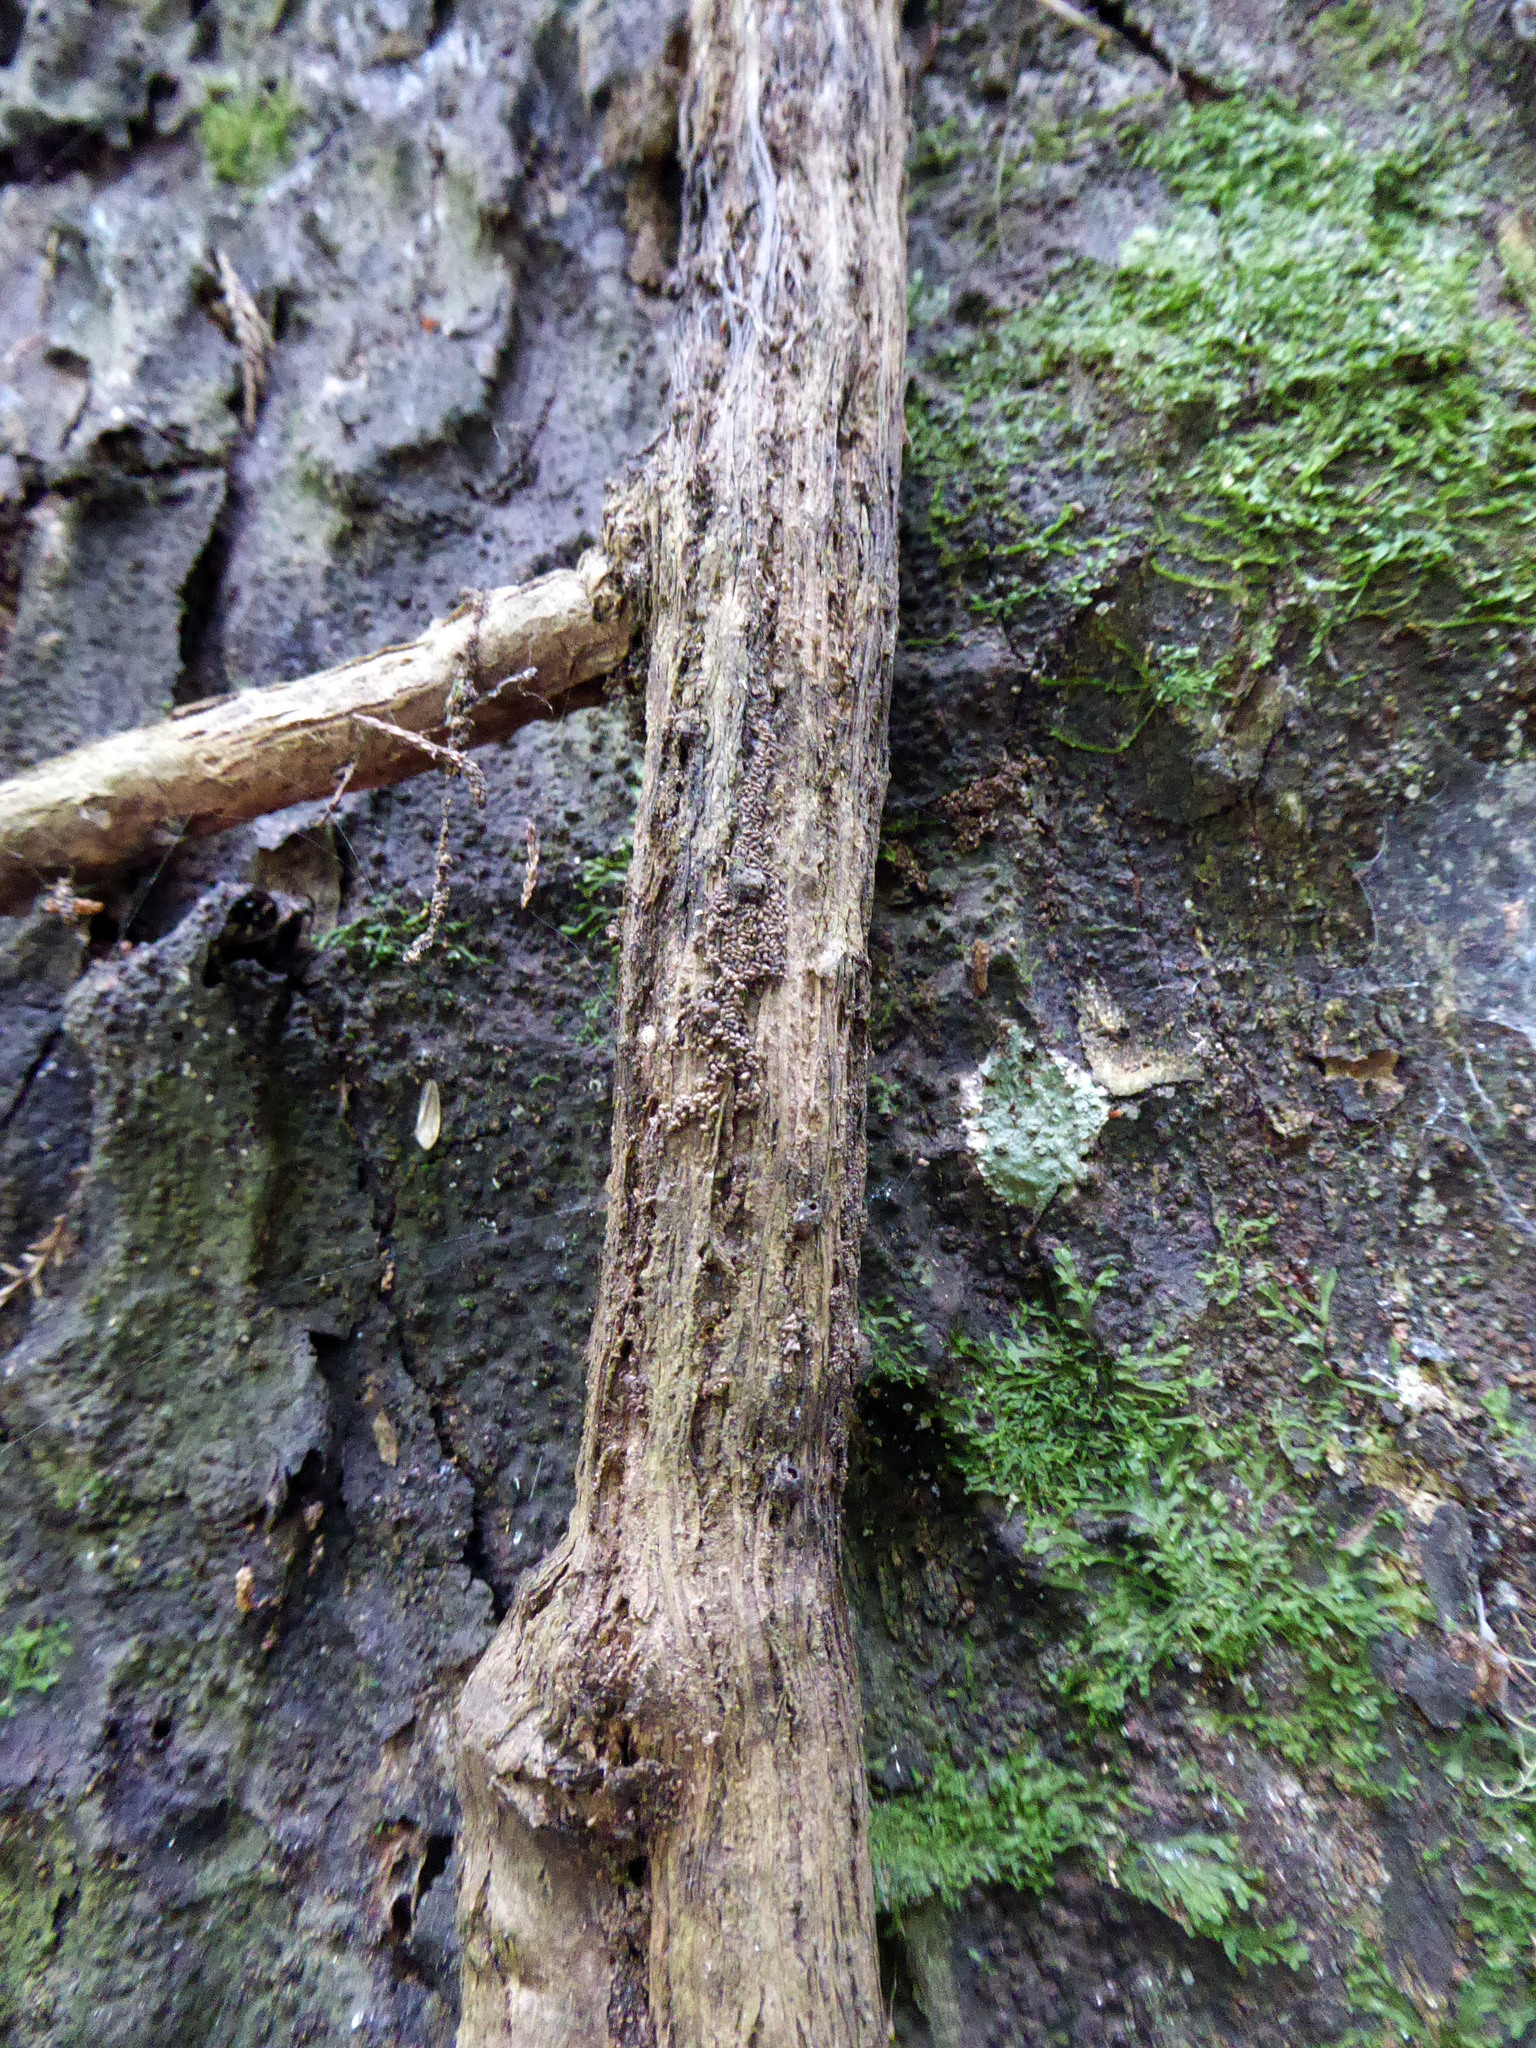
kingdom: Plantae
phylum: Tracheophyta
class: Magnoliopsida
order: Apiales
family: Griseliniaceae
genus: Griselinia
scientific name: Griselinia lucida
